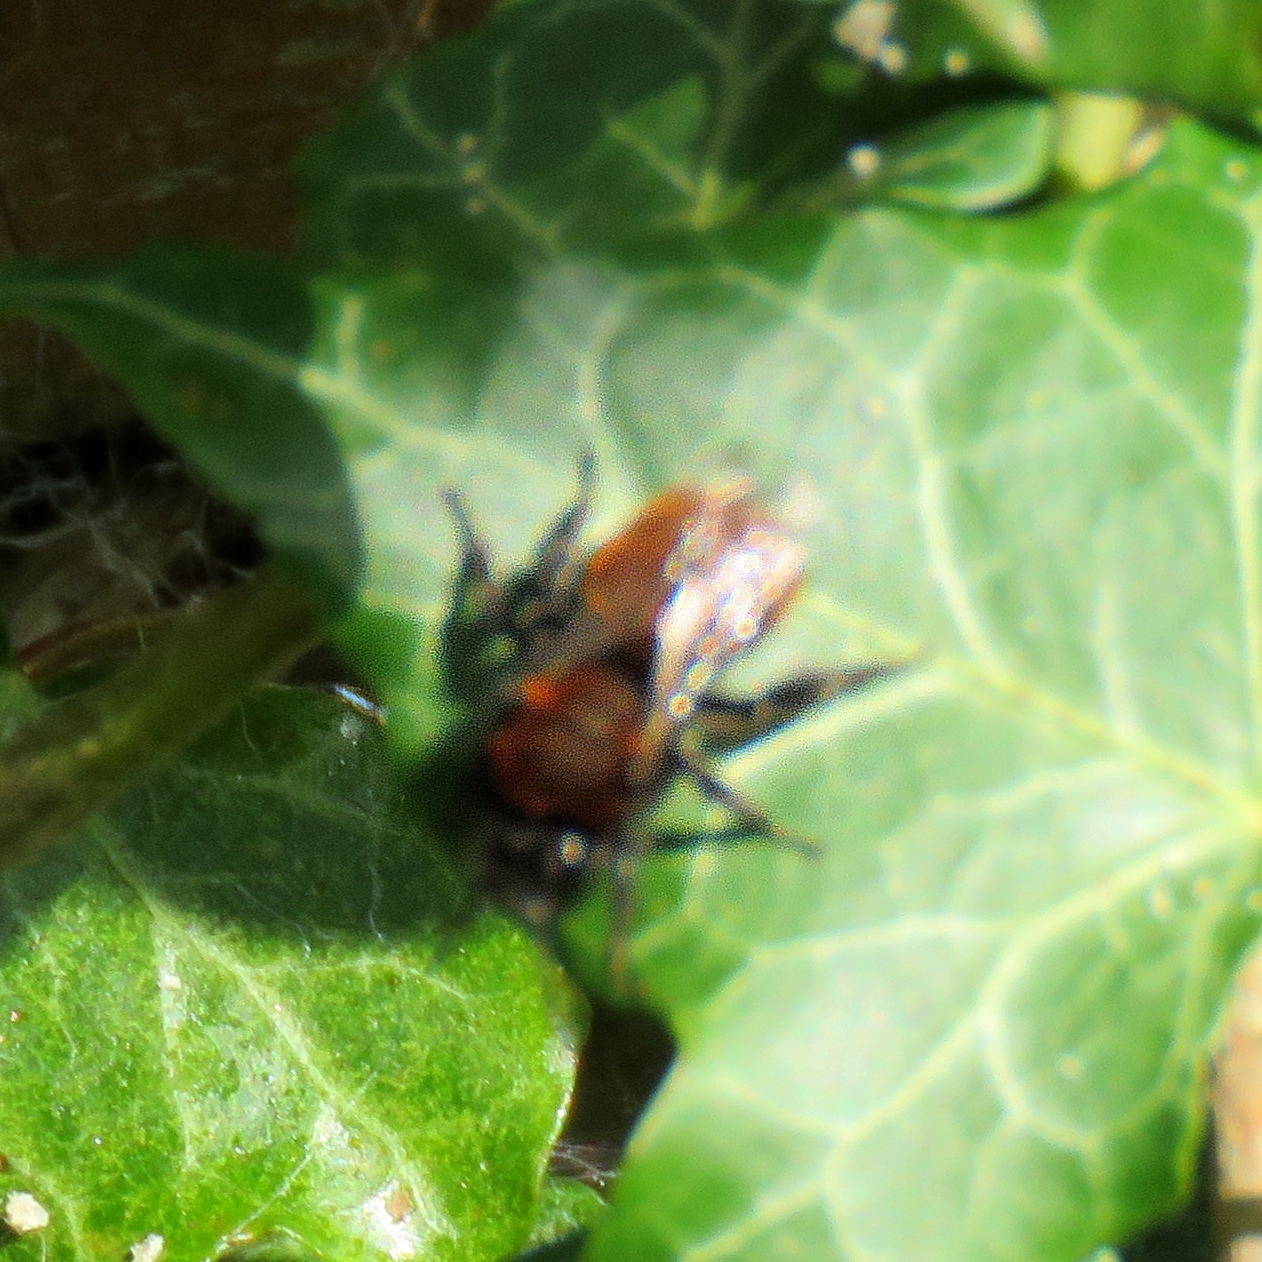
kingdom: Animalia
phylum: Arthropoda
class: Insecta
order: Hymenoptera
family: Andrenidae
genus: Andrena
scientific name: Andrena fulva
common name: Tawny mining bee
